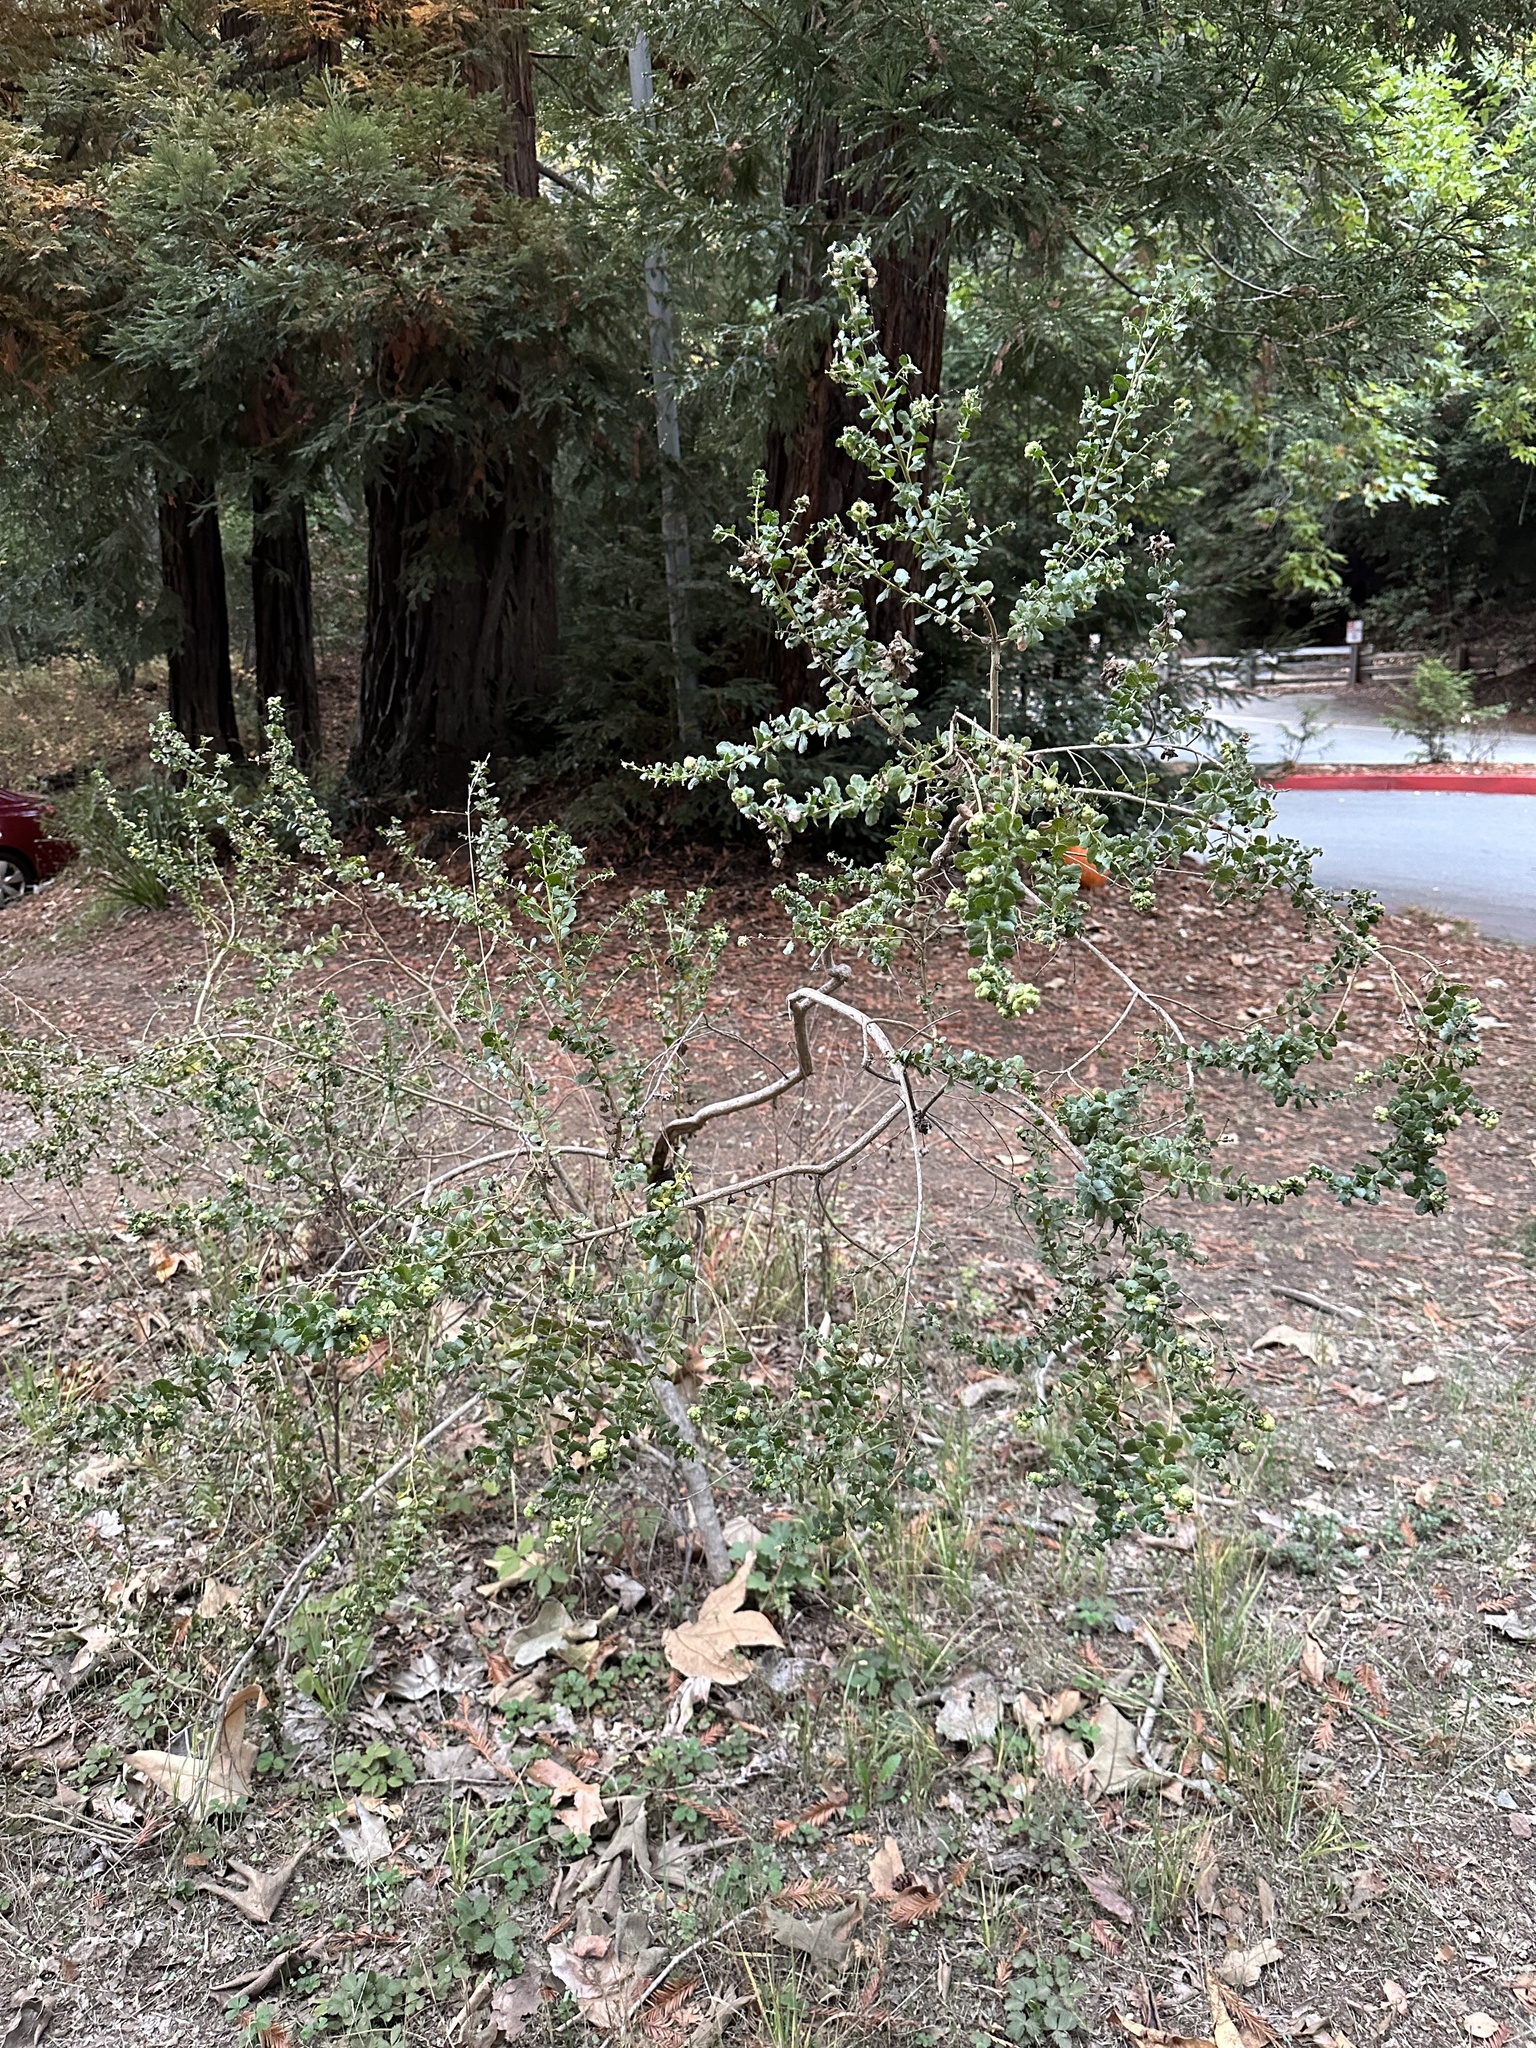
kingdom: Plantae
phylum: Tracheophyta
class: Magnoliopsida
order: Asterales
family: Asteraceae
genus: Baccharis
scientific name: Baccharis pilularis
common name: Coyotebrush
